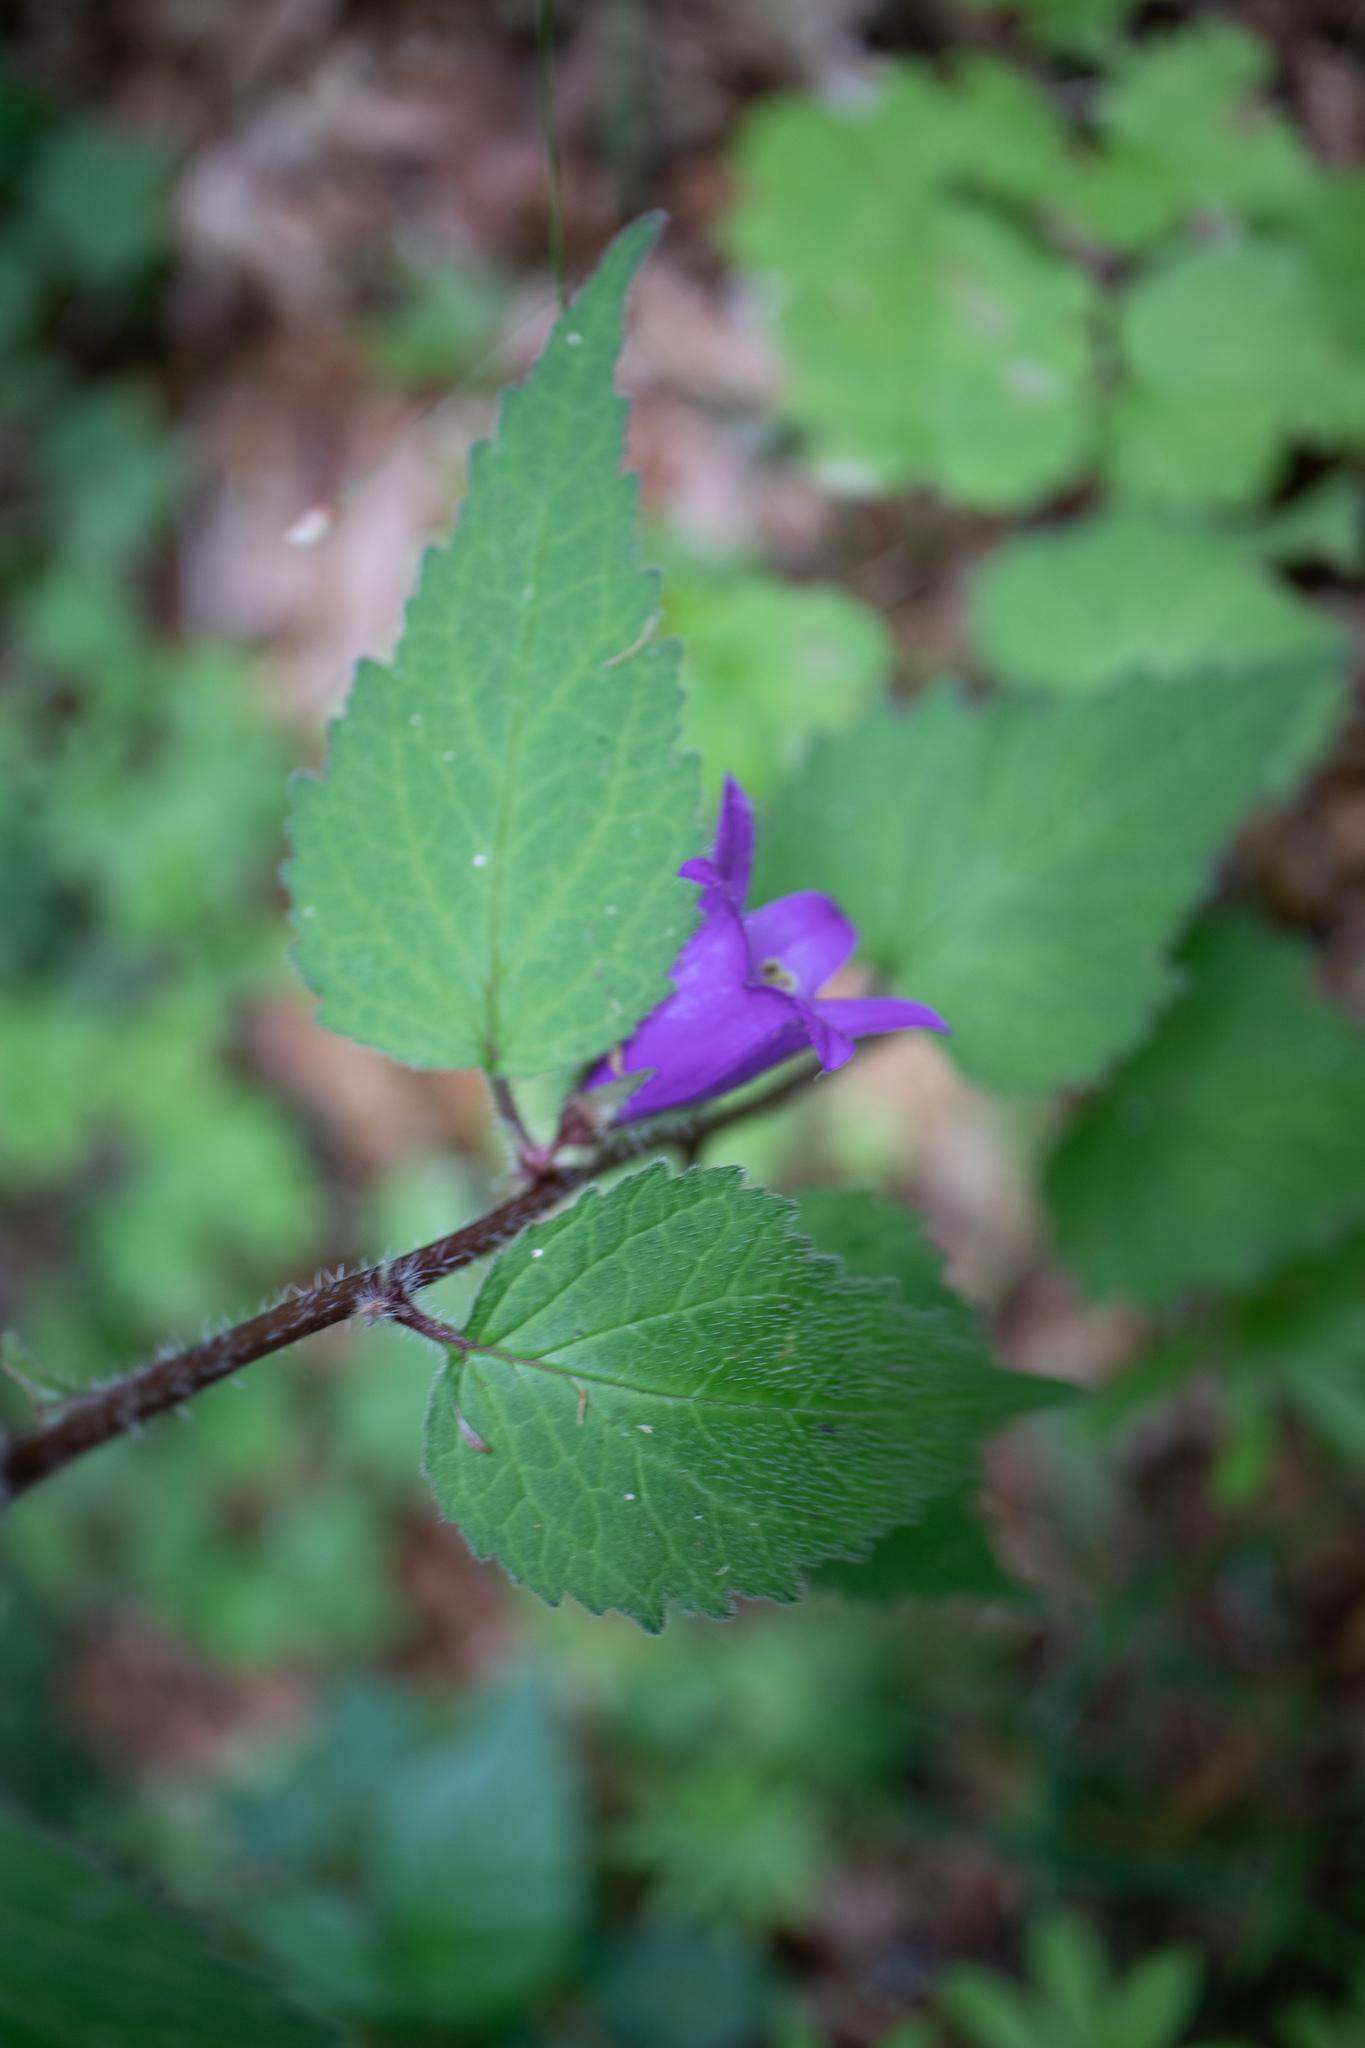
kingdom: Plantae
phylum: Tracheophyta
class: Magnoliopsida
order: Asterales
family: Campanulaceae
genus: Campanula
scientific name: Campanula trachelium
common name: Nettle-leaved bellflower
